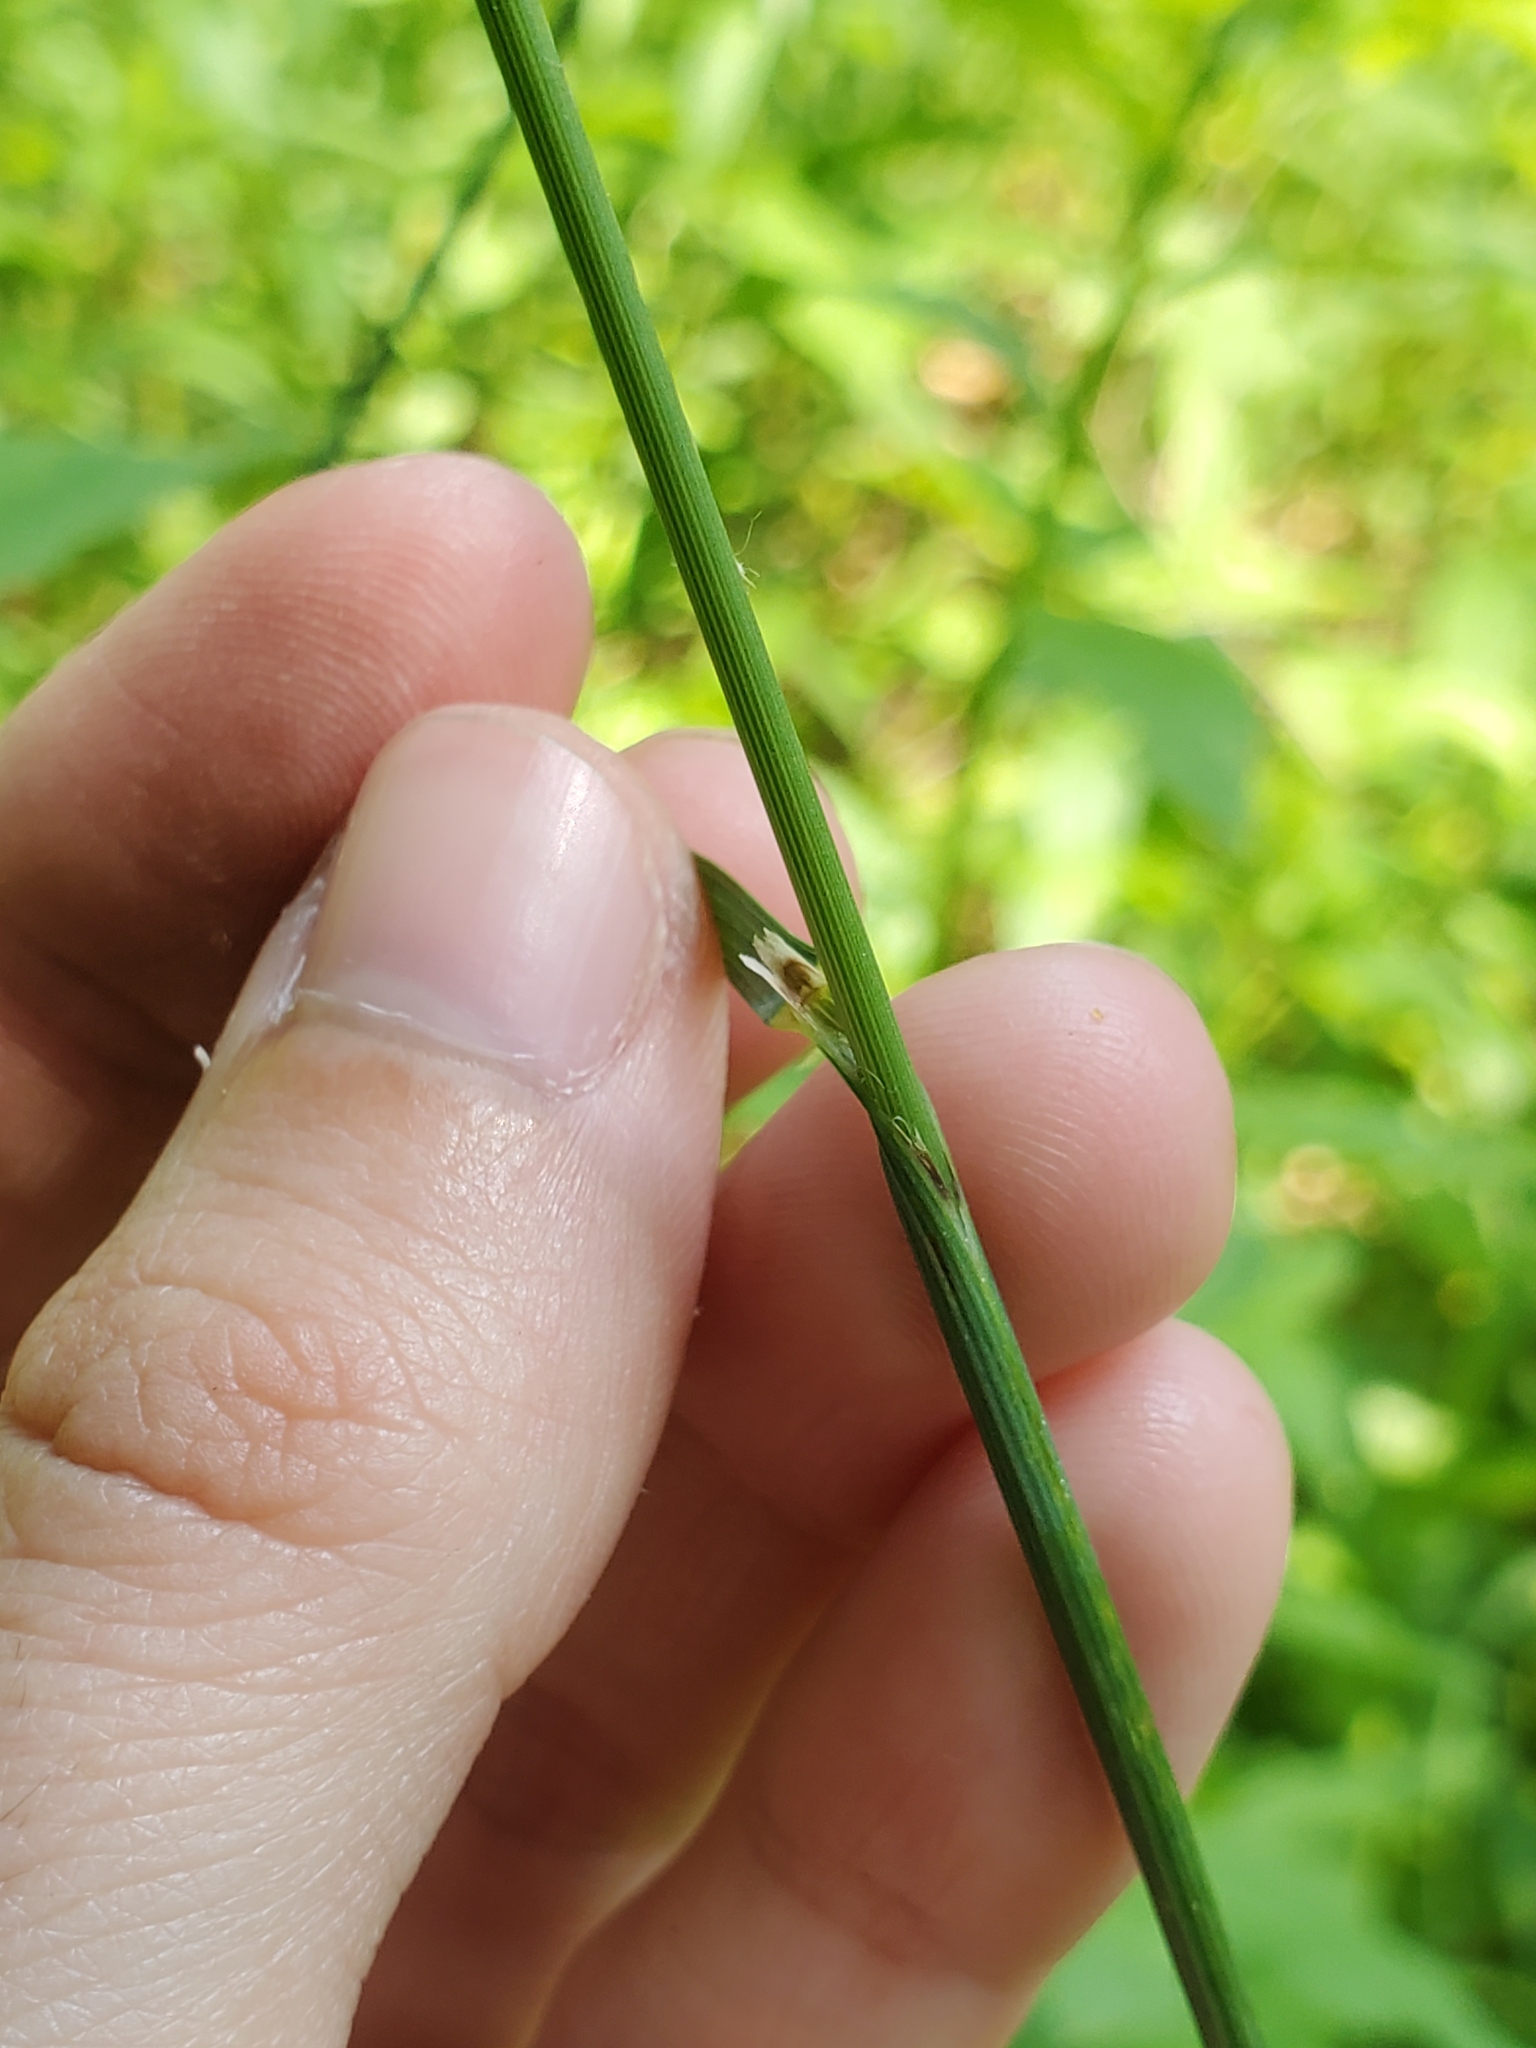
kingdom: Plantae
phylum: Tracheophyta
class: Liliopsida
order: Poales
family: Poaceae
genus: Melica
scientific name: Melica nitens
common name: Three-flower melic
